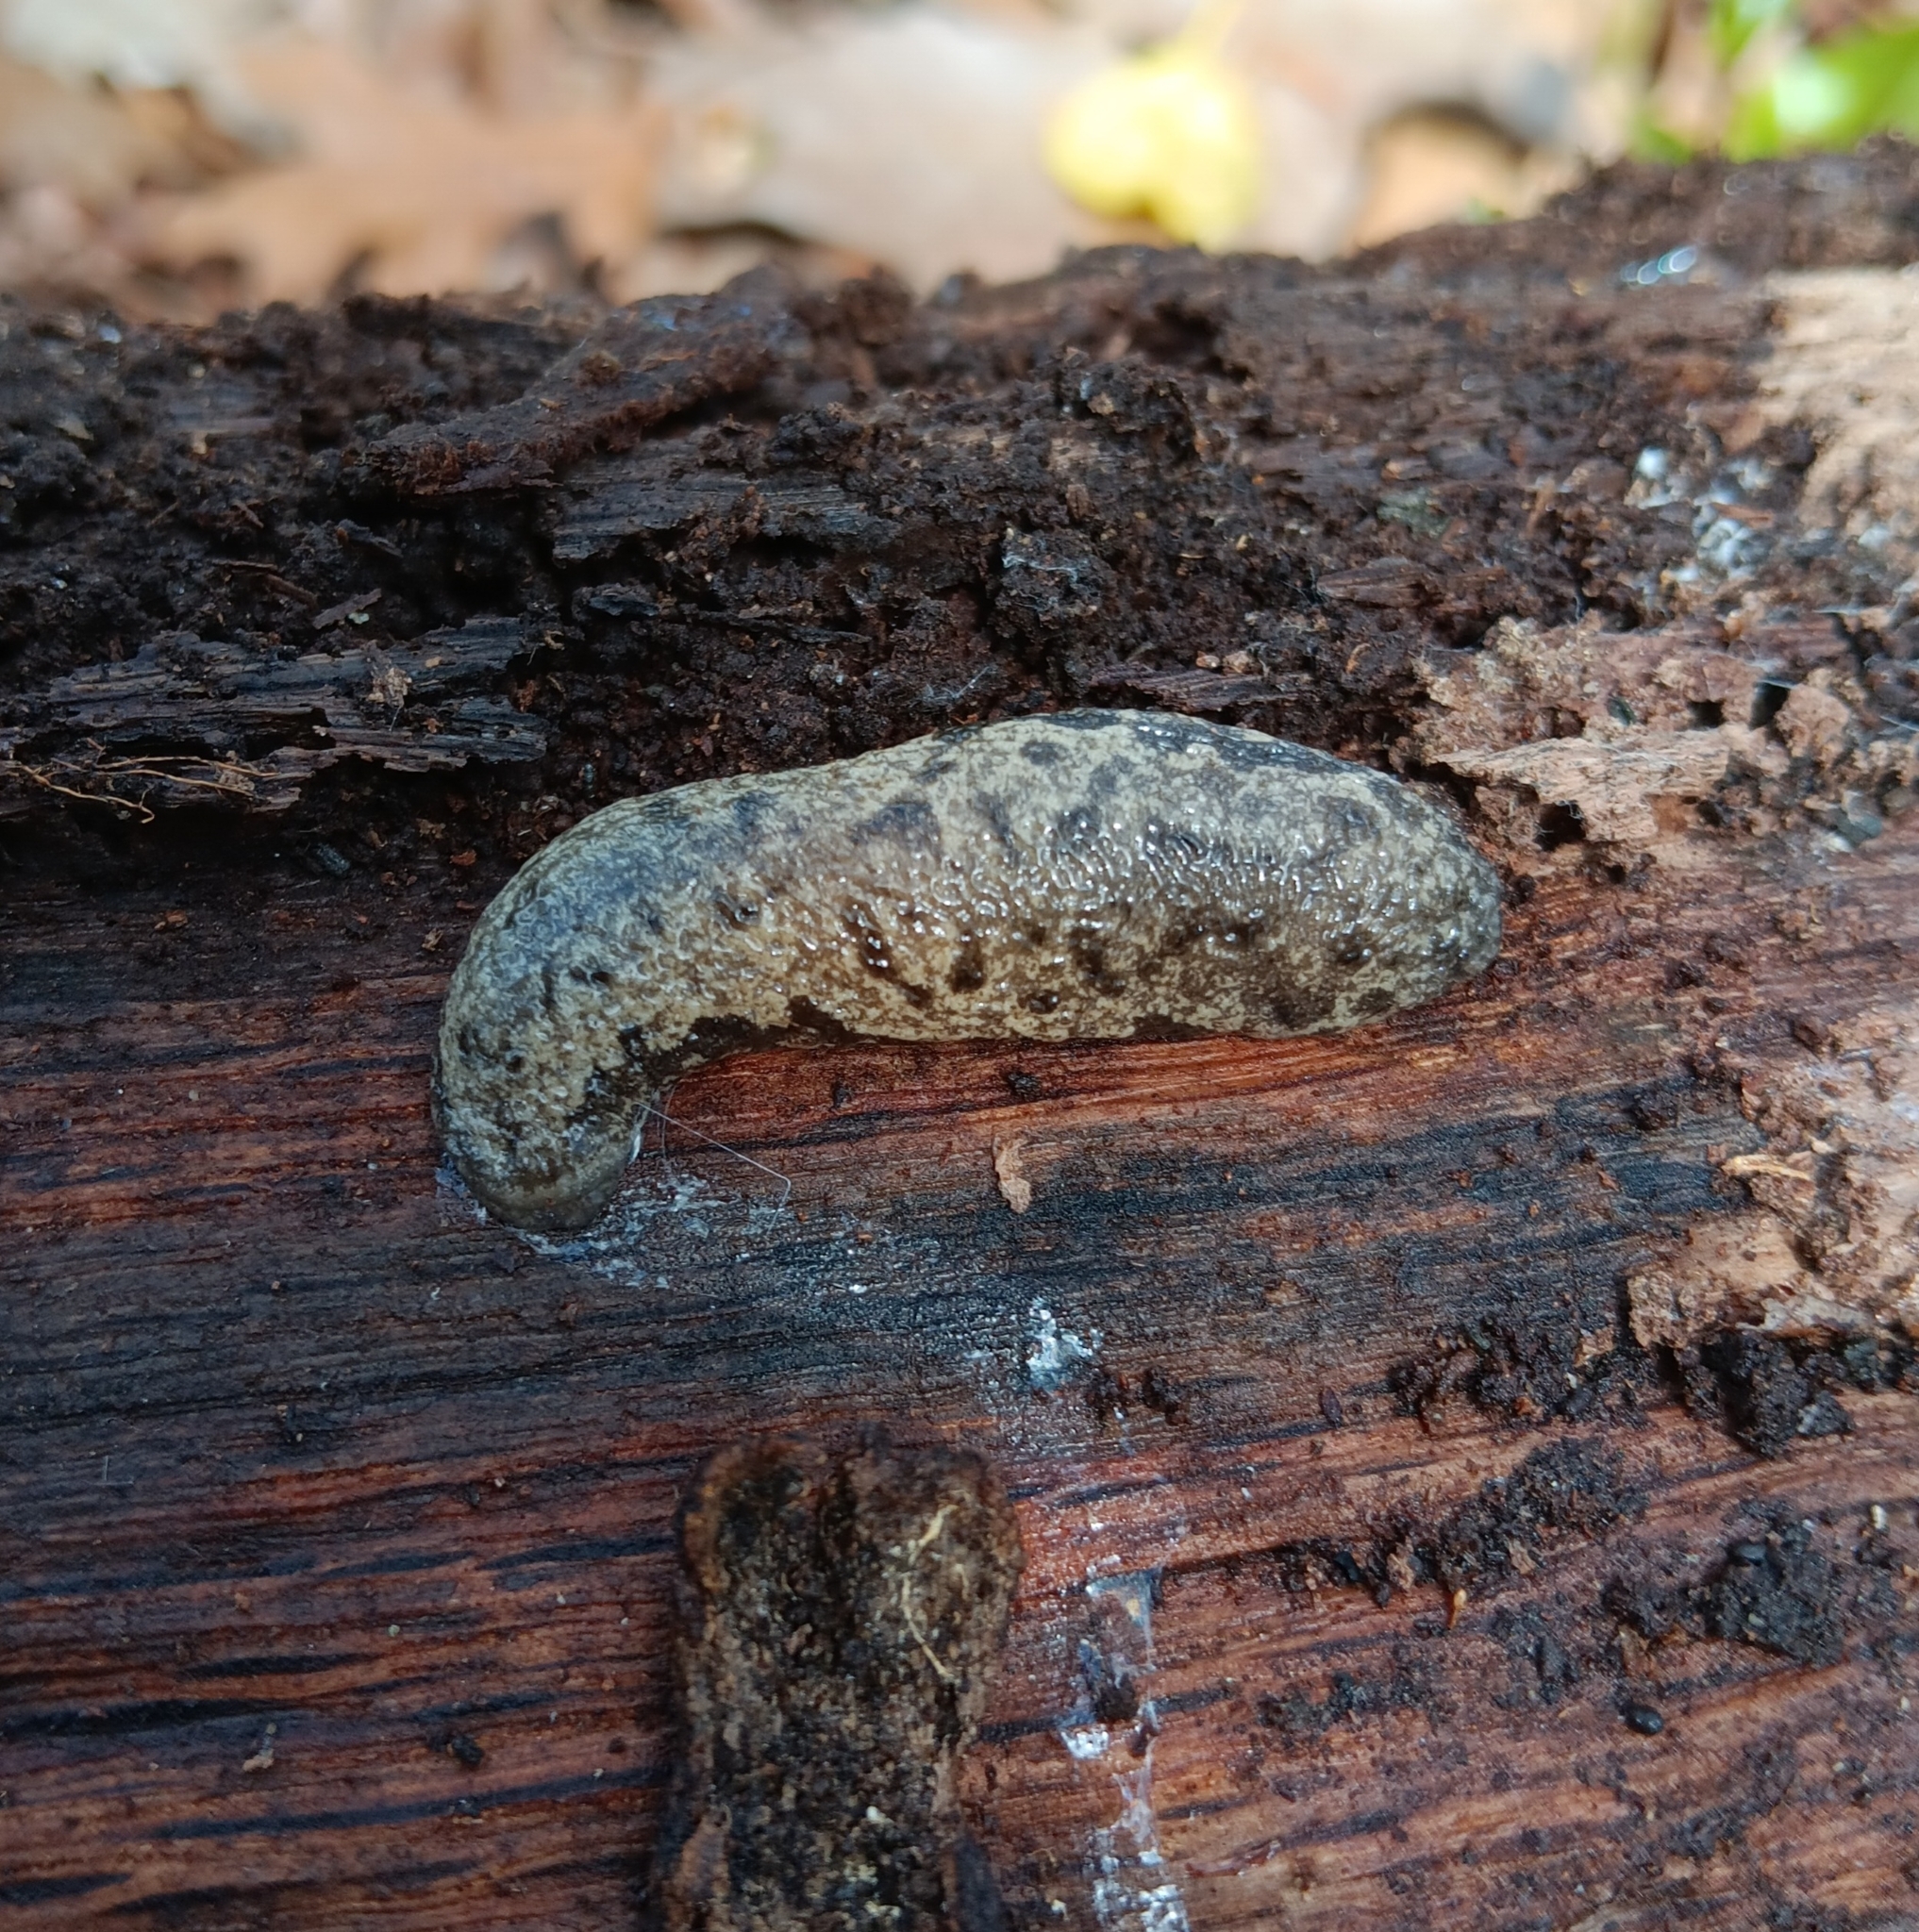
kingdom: Animalia
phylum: Mollusca
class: Gastropoda
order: Stylommatophora
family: Philomycidae
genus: Megapallifera
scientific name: Megapallifera mutabilis
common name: Changeable mantleslug
